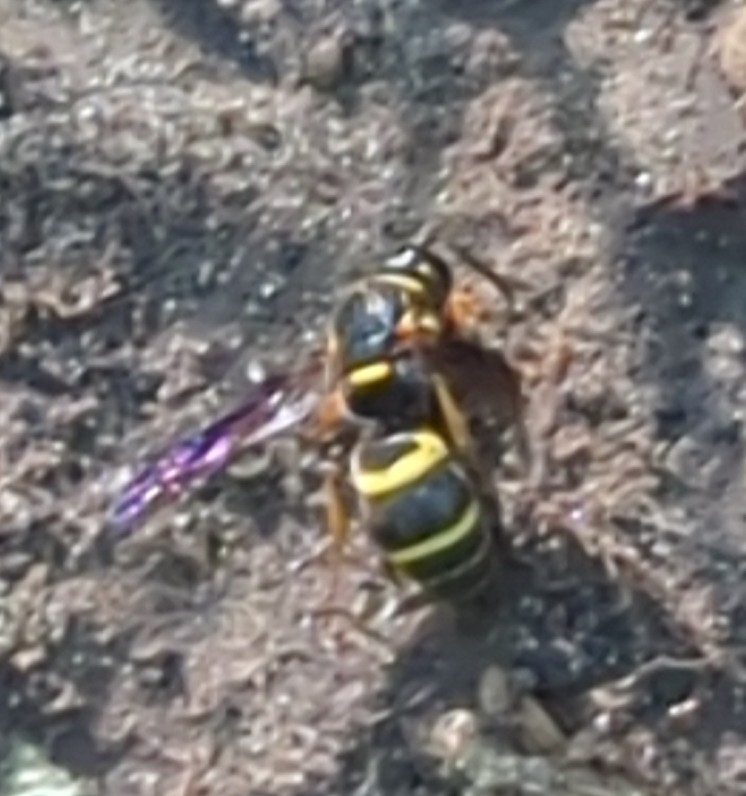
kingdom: Animalia
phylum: Arthropoda
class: Insecta
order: Hymenoptera
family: Eumenidae
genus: Euodynerus
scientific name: Euodynerus foraminatus
